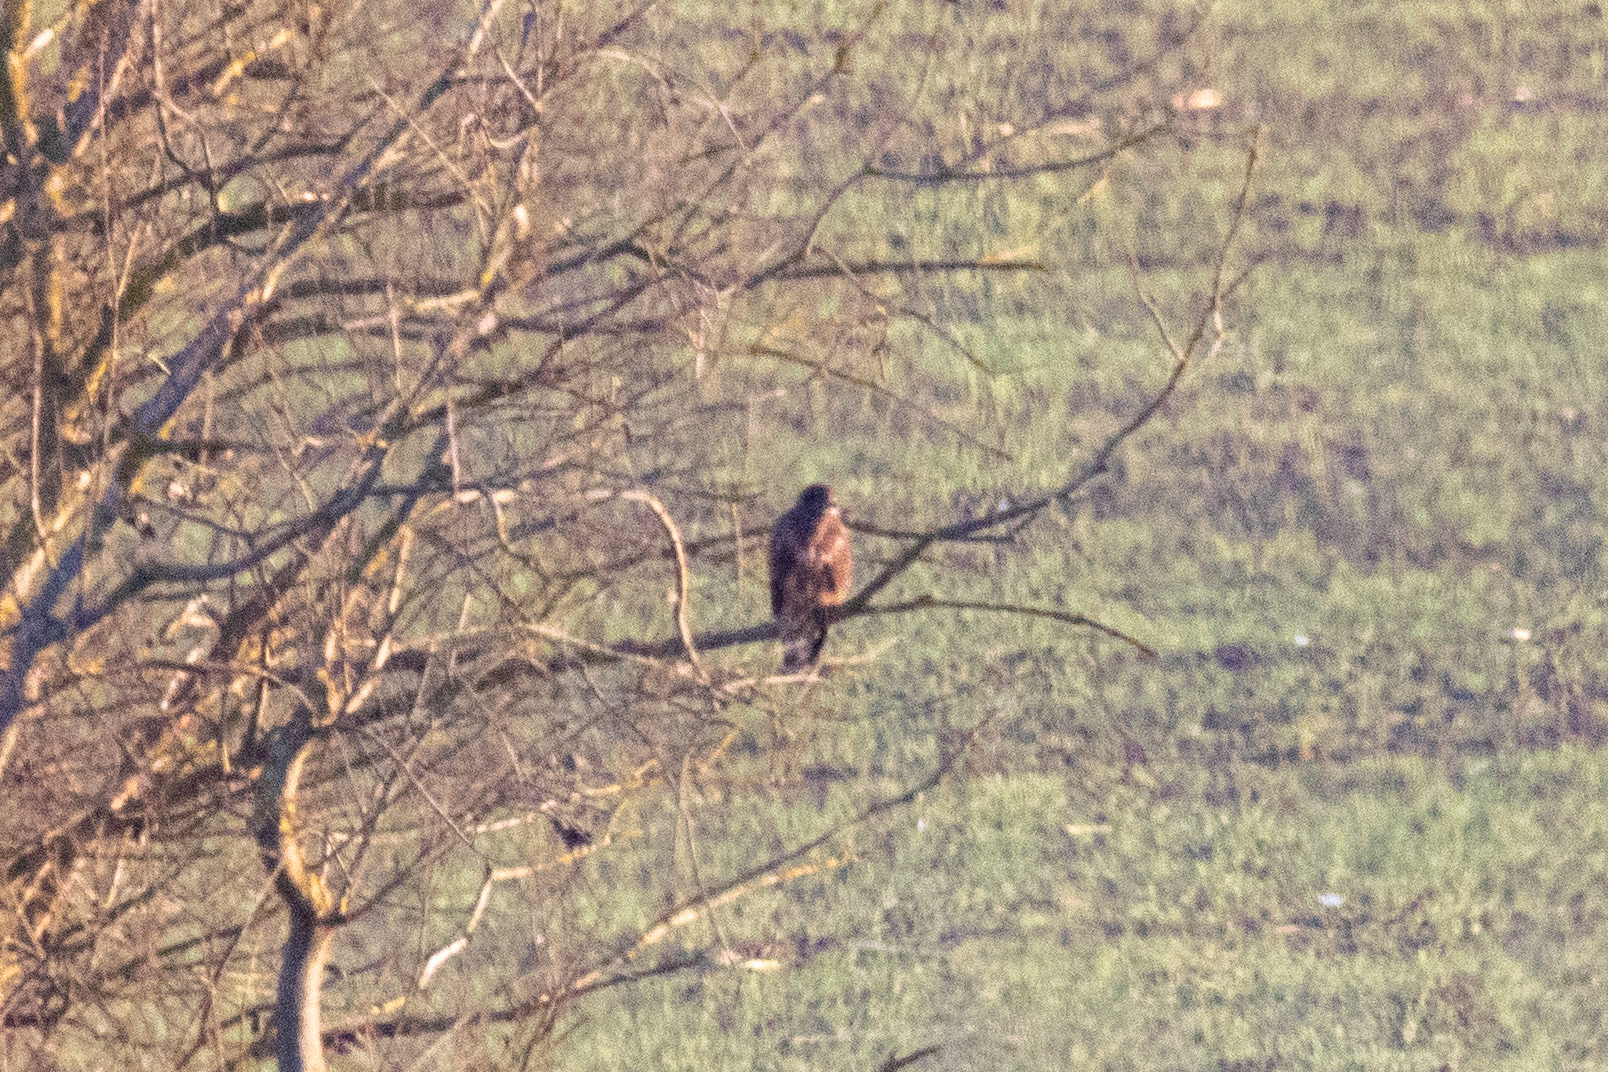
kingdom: Animalia
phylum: Chordata
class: Aves
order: Accipitriformes
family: Accipitridae
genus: Buteo
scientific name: Buteo buteo
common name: Common buzzard
